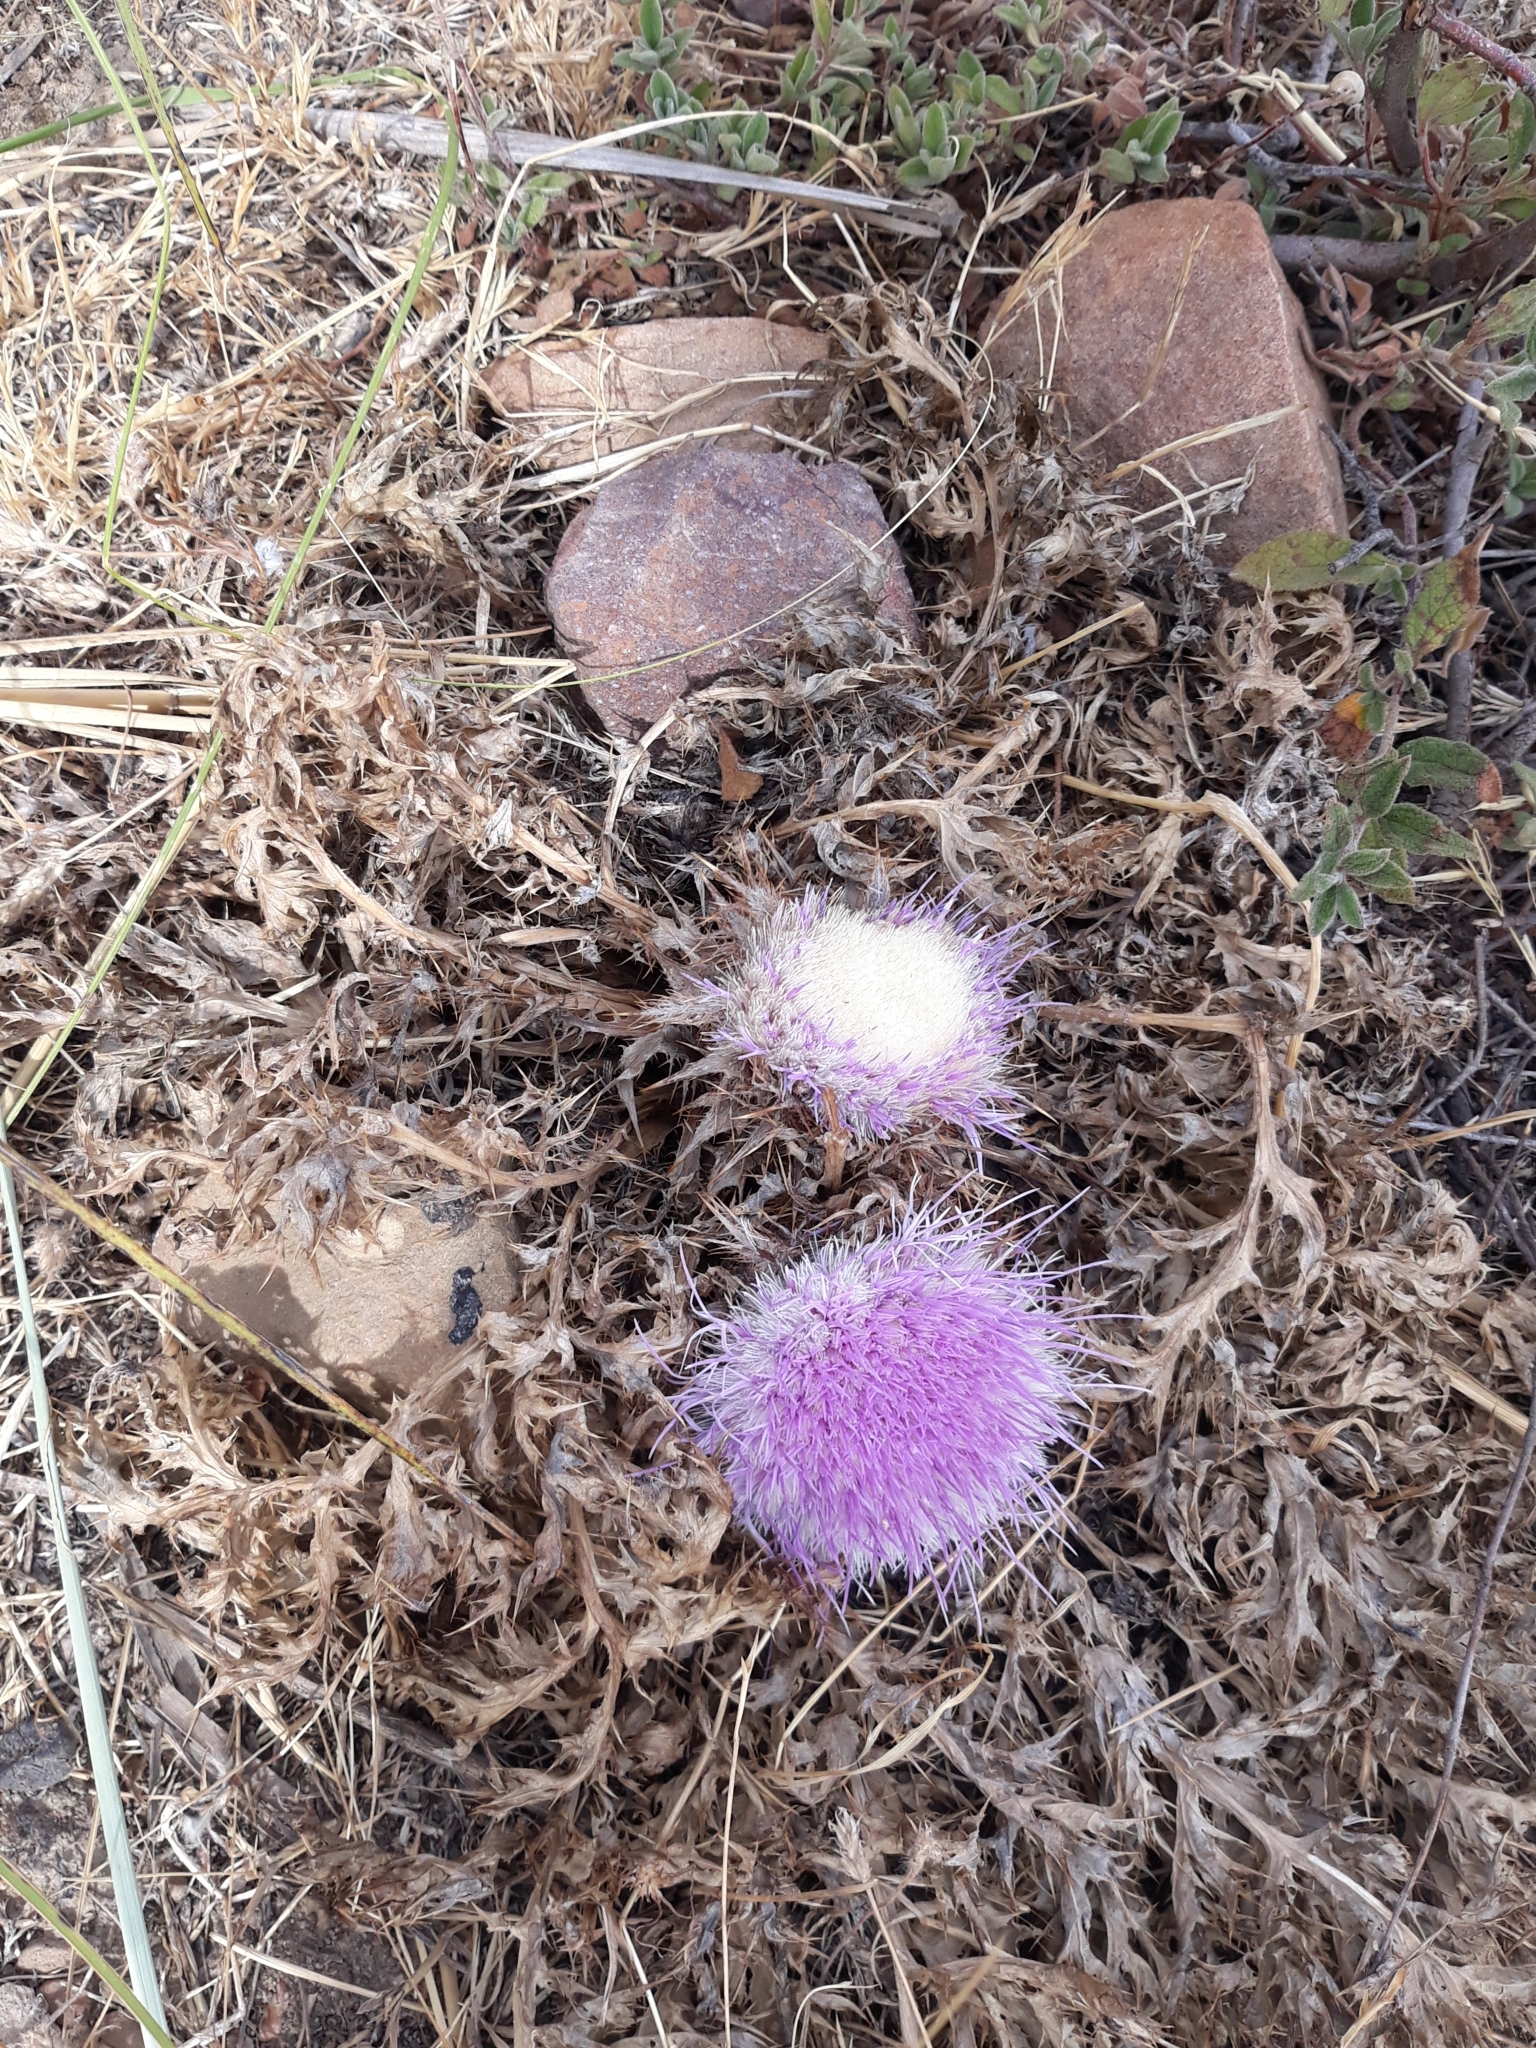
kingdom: Plantae
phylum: Tracheophyta
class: Magnoliopsida
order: Asterales
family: Asteraceae
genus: Chamaeleon
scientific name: Chamaeleon gummifer
